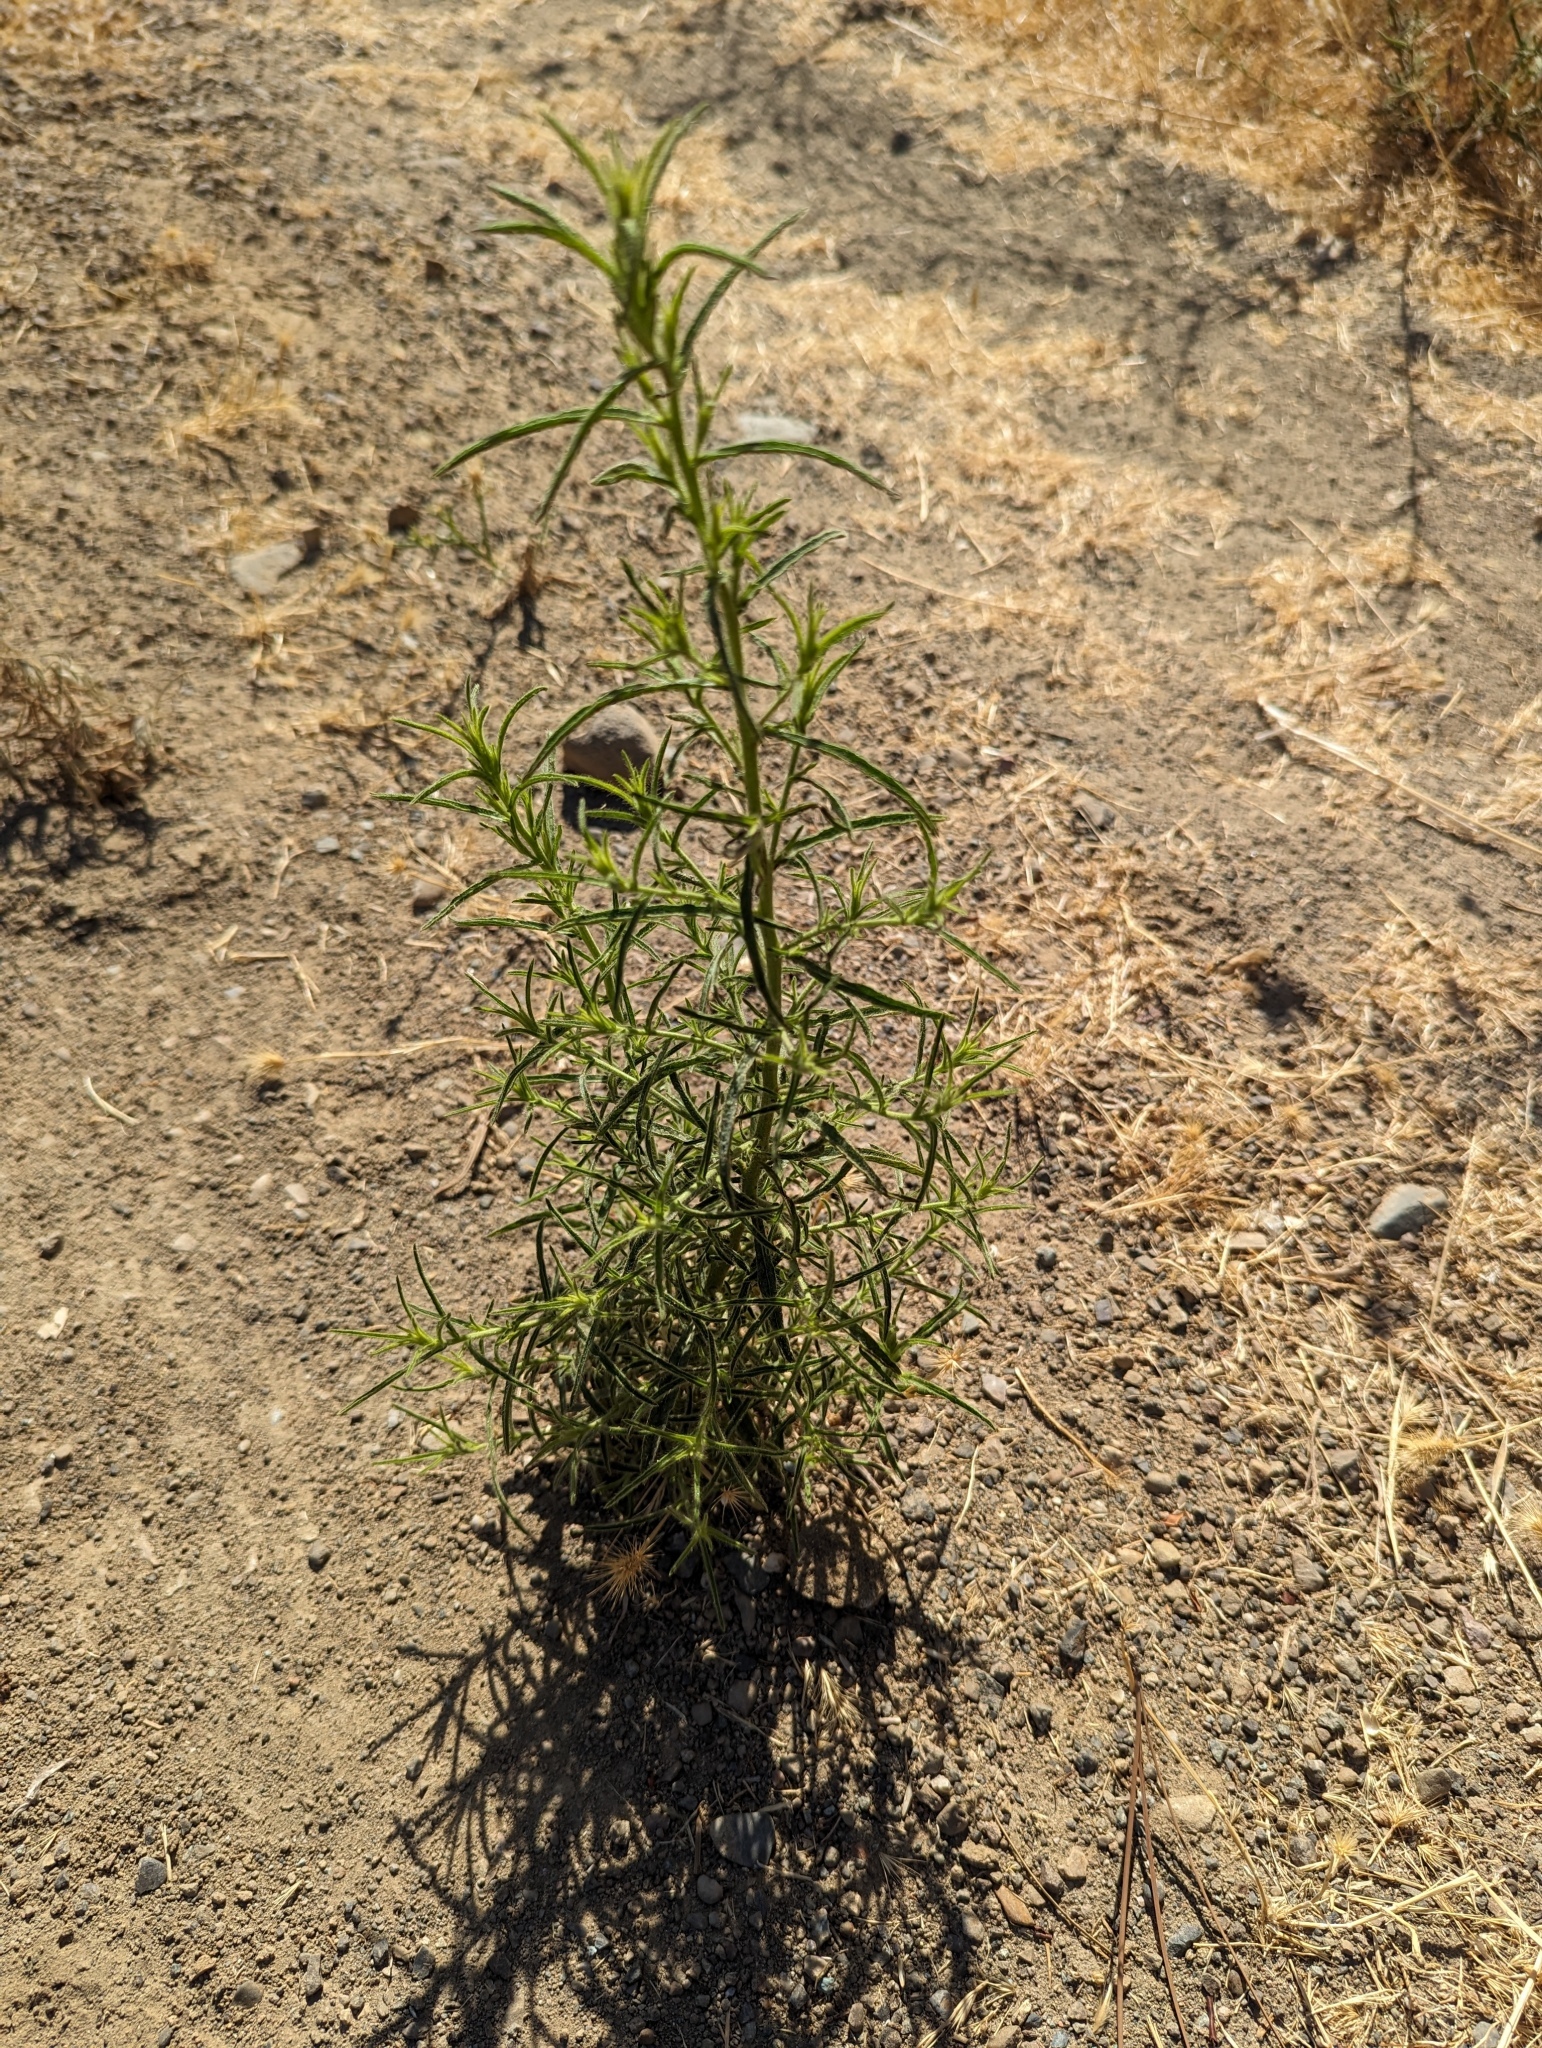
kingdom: Plantae
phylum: Tracheophyta
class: Magnoliopsida
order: Asterales
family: Asteraceae
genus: Dittrichia
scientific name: Dittrichia graveolens
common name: Stinking fleabane
